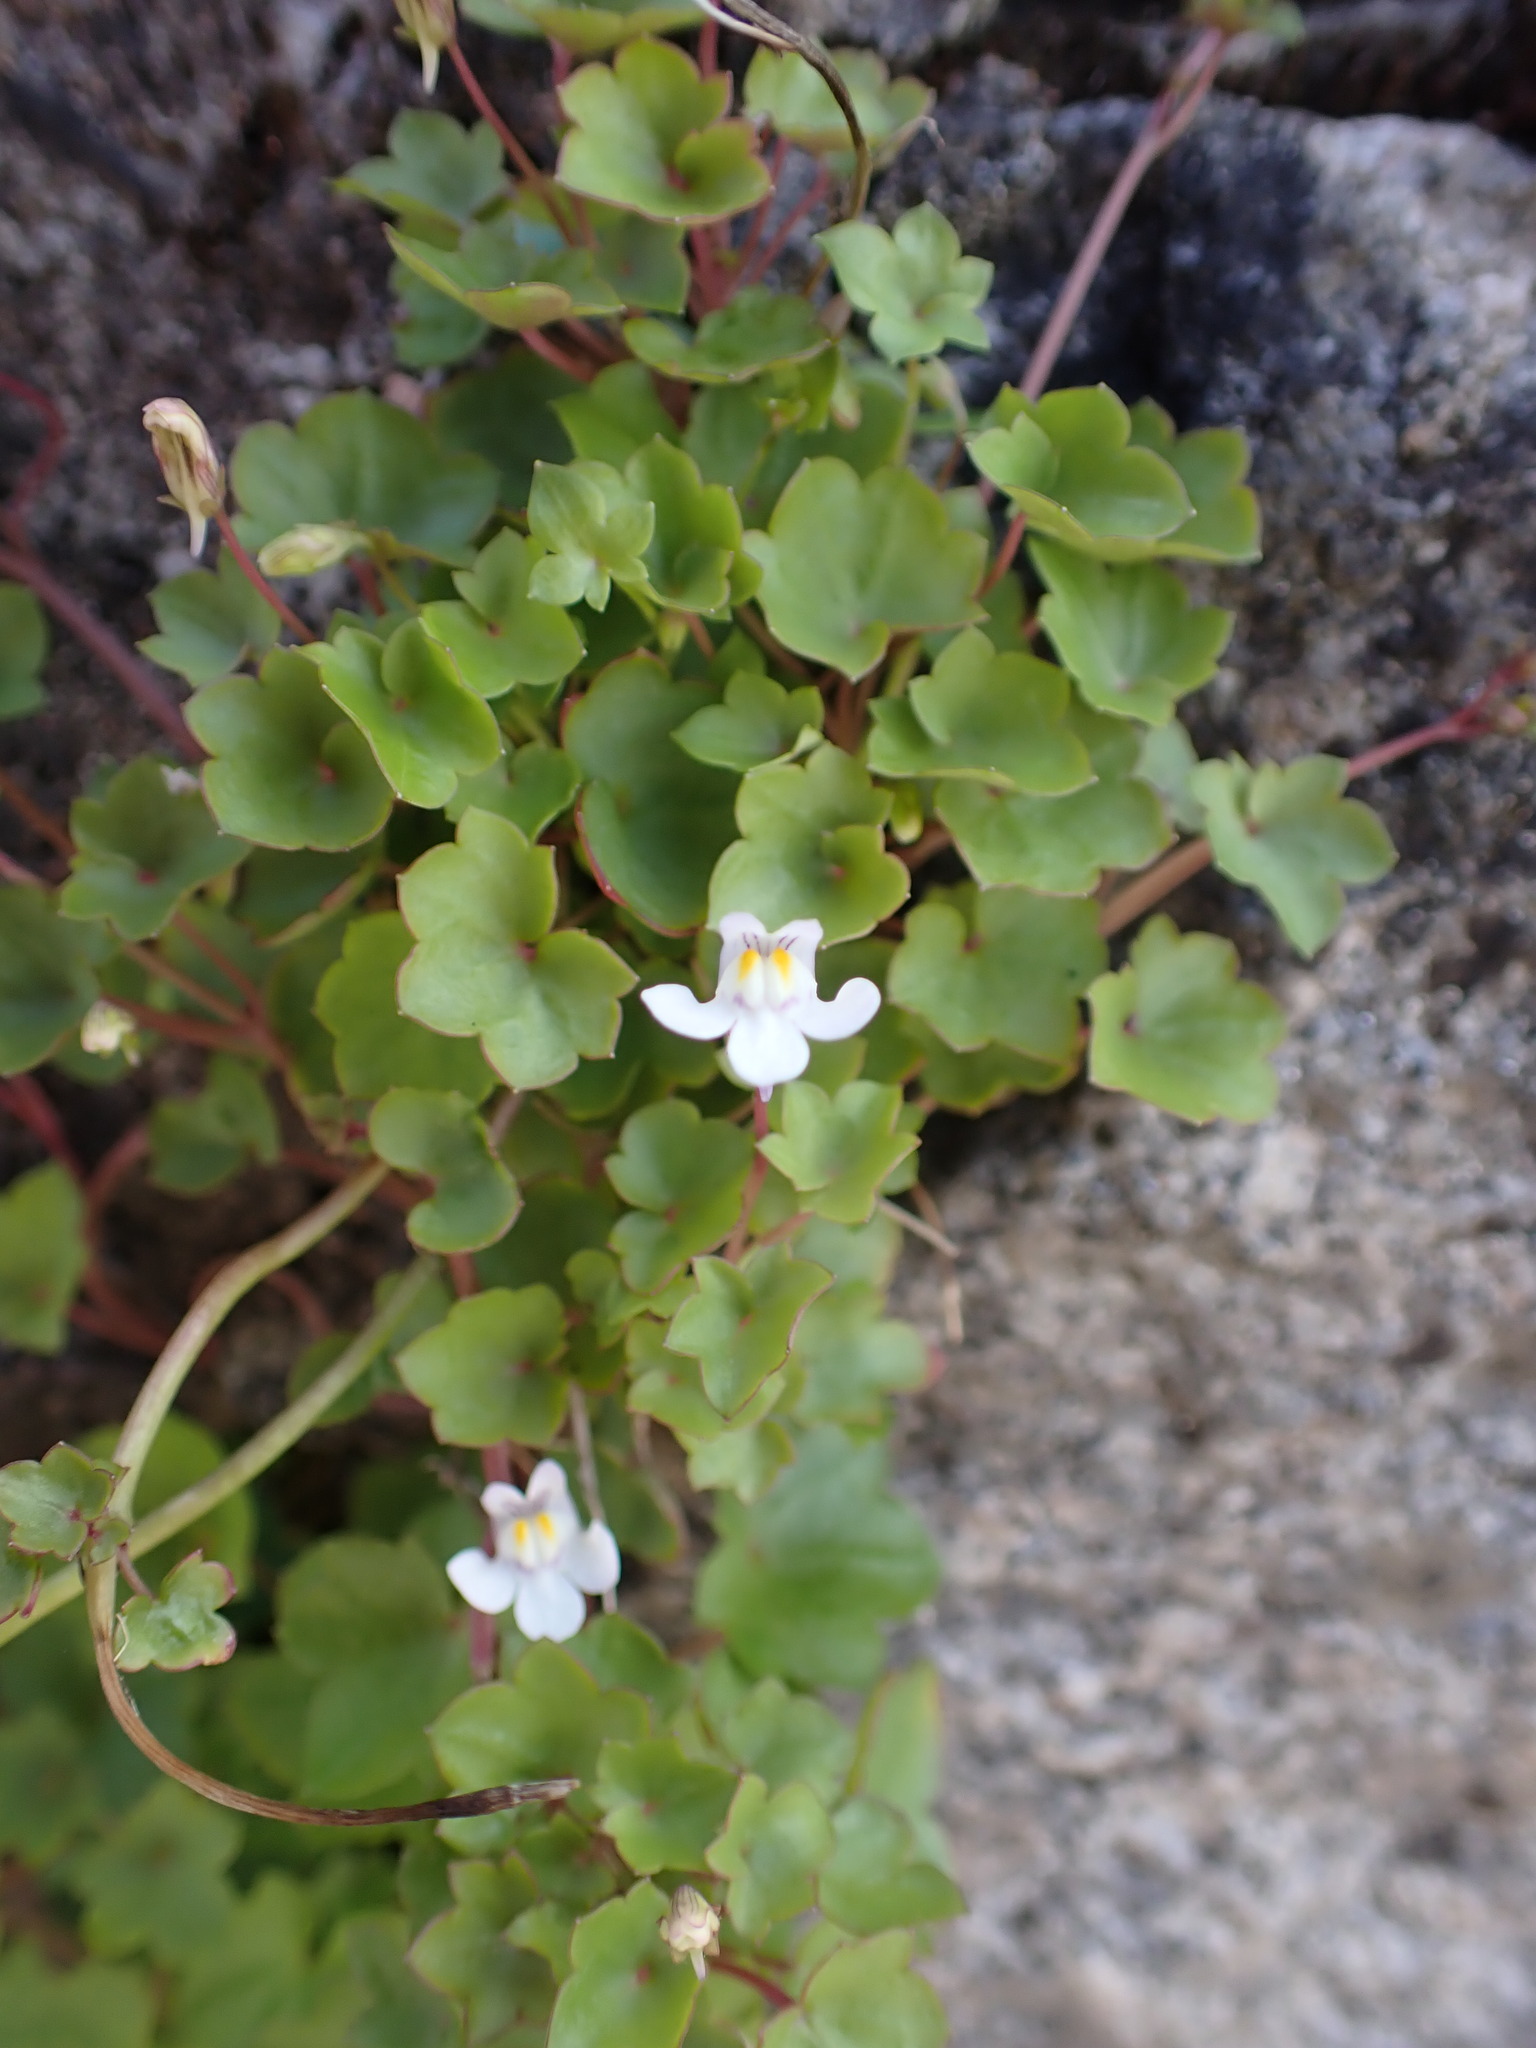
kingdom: Plantae
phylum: Tracheophyta
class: Magnoliopsida
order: Lamiales
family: Plantaginaceae
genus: Cymbalaria
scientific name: Cymbalaria muralis
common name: Ivy-leaved toadflax
